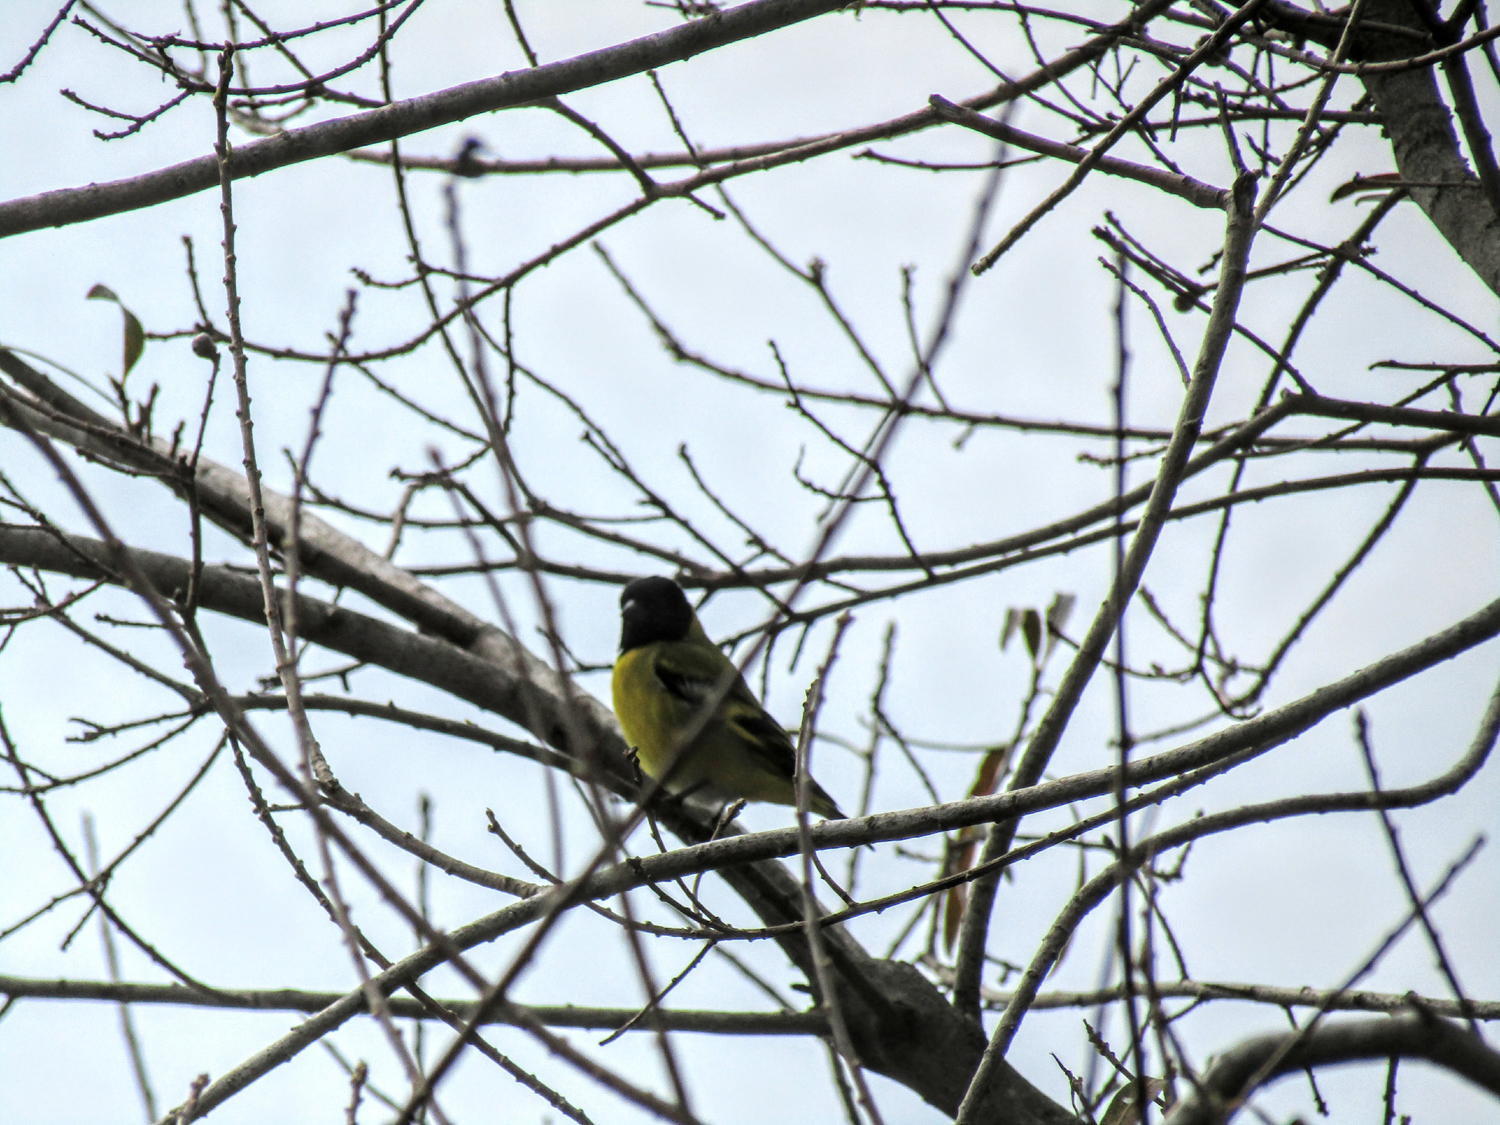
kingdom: Animalia
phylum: Chordata
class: Aves
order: Passeriformes
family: Fringillidae
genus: Spinus
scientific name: Spinus magellanicus
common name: Hooded siskin
